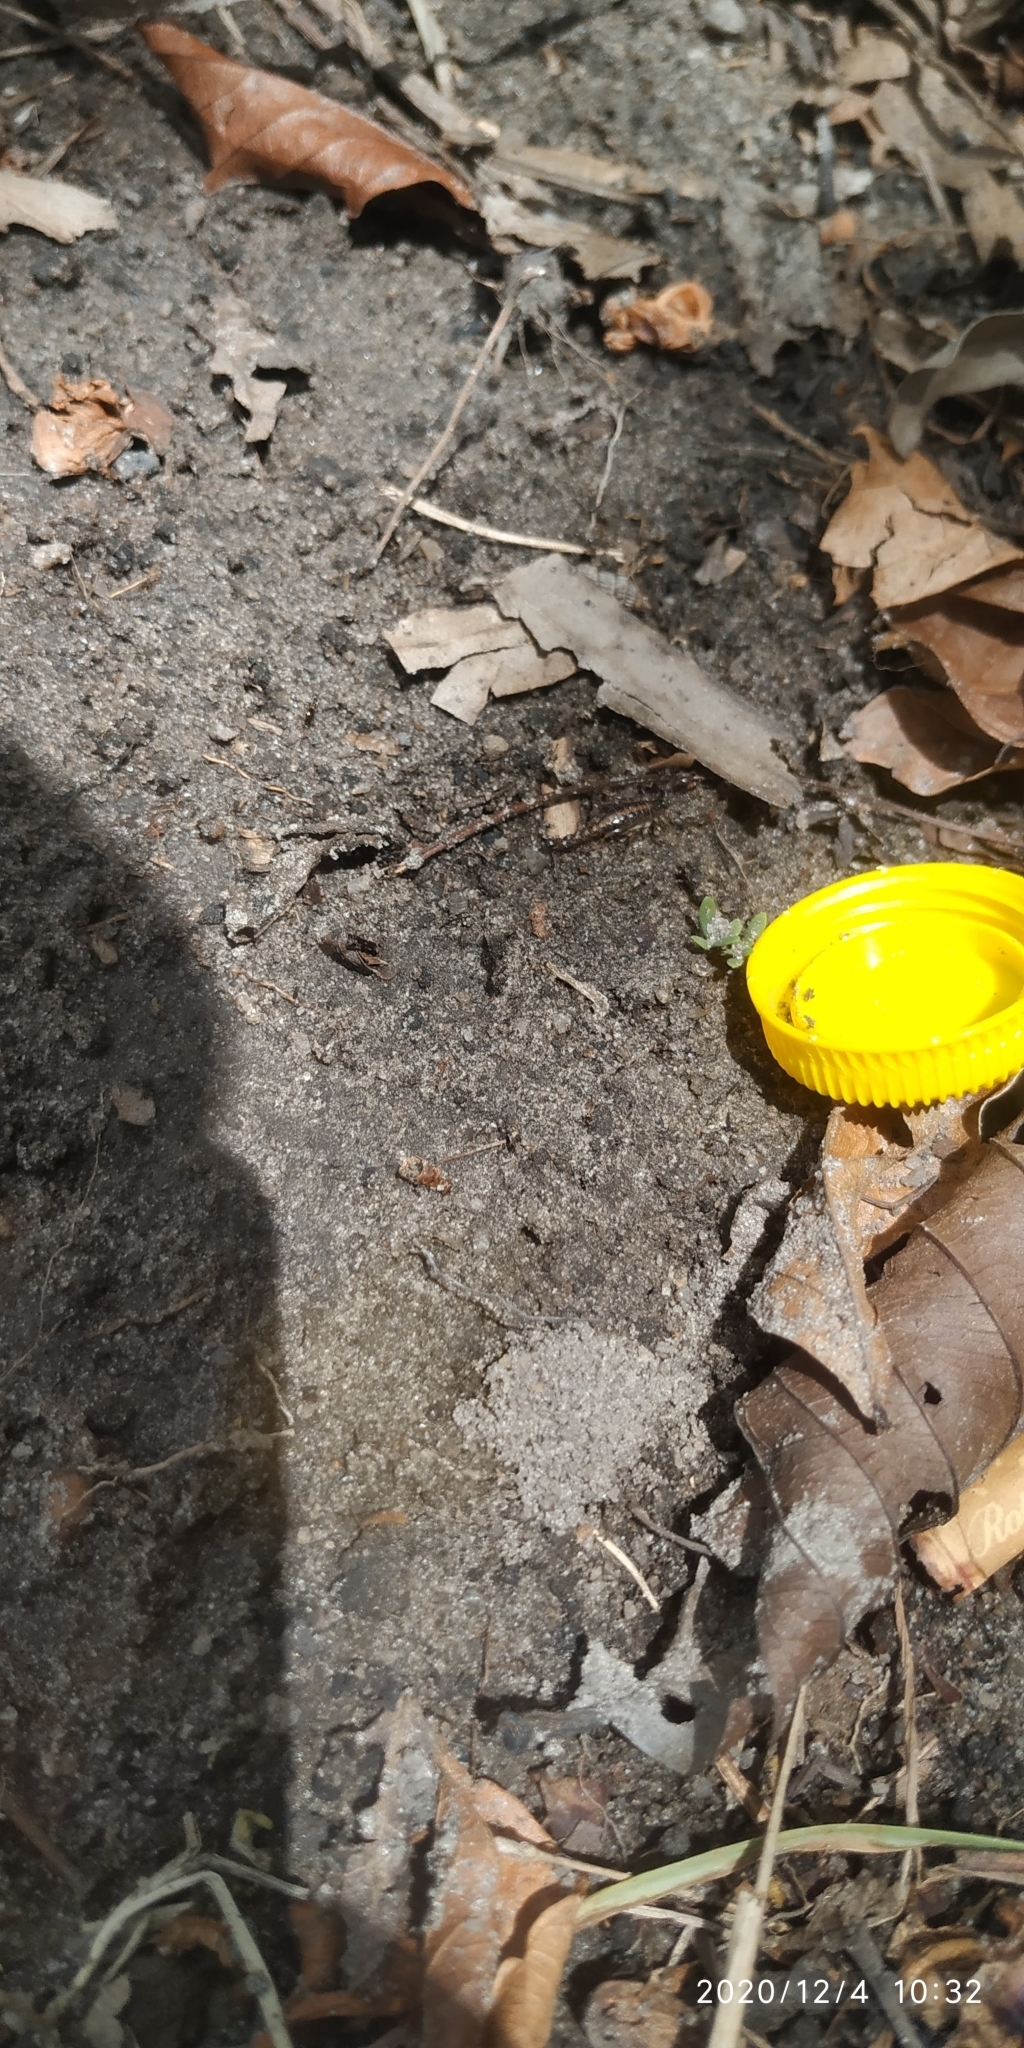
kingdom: Animalia
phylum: Arthropoda
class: Arachnida
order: Scorpiones
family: Bothriuridae
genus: Bothriurus
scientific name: Bothriurus asper
